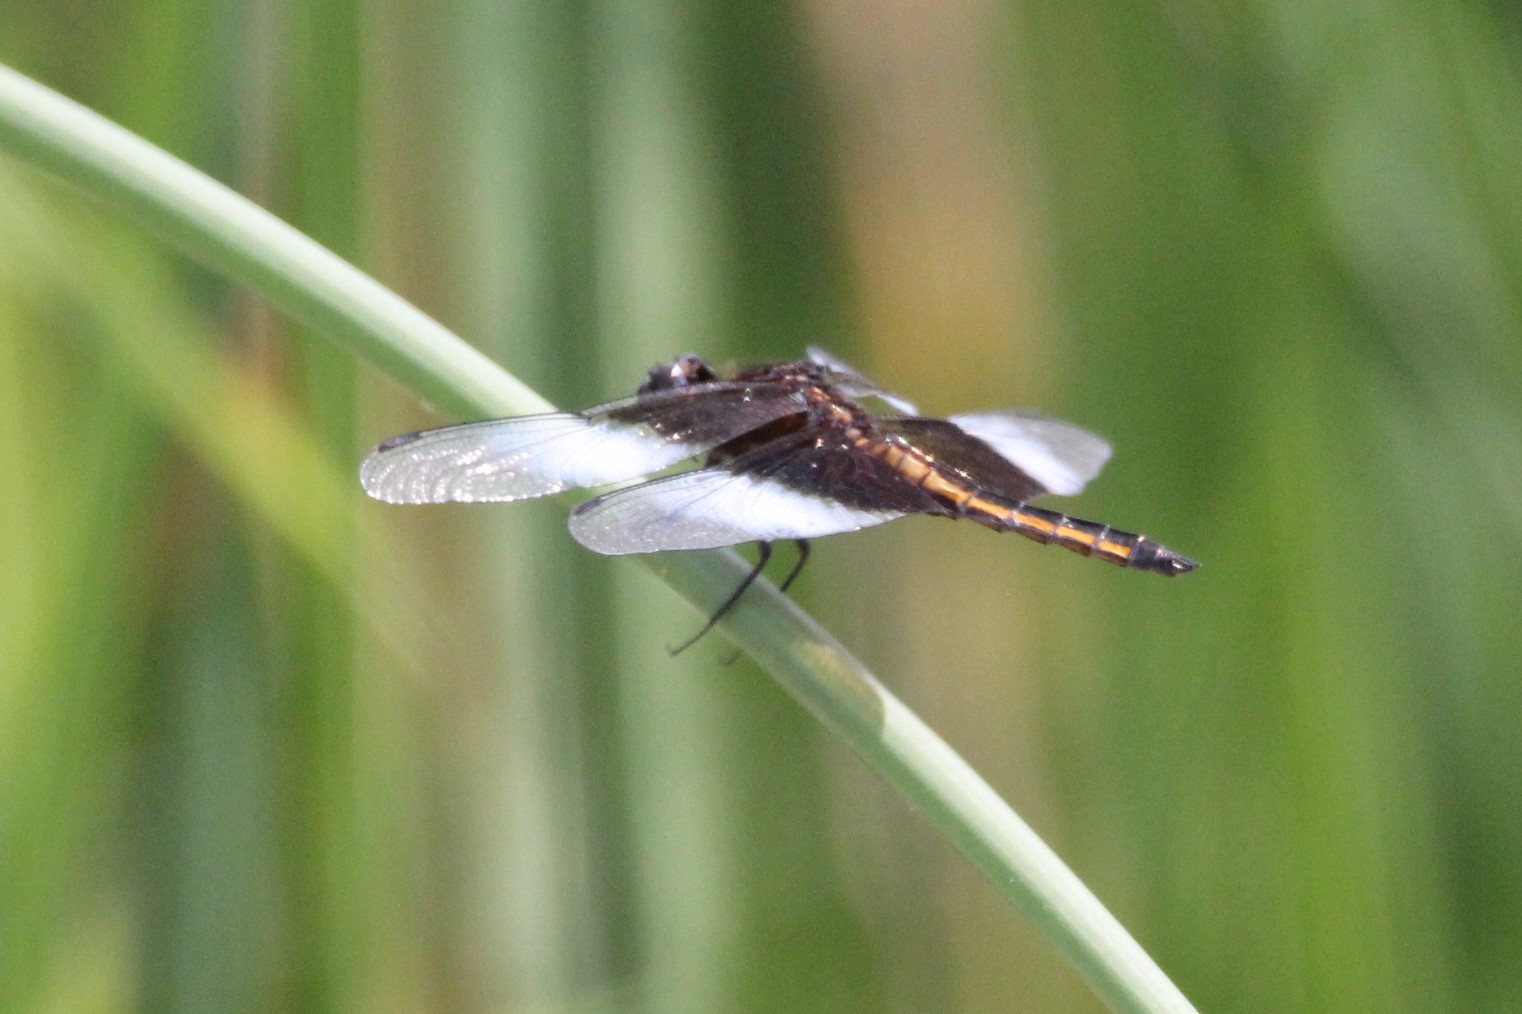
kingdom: Animalia
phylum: Arthropoda
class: Insecta
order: Odonata
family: Libellulidae
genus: Libellula
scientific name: Libellula luctuosa
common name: Widow skimmer
